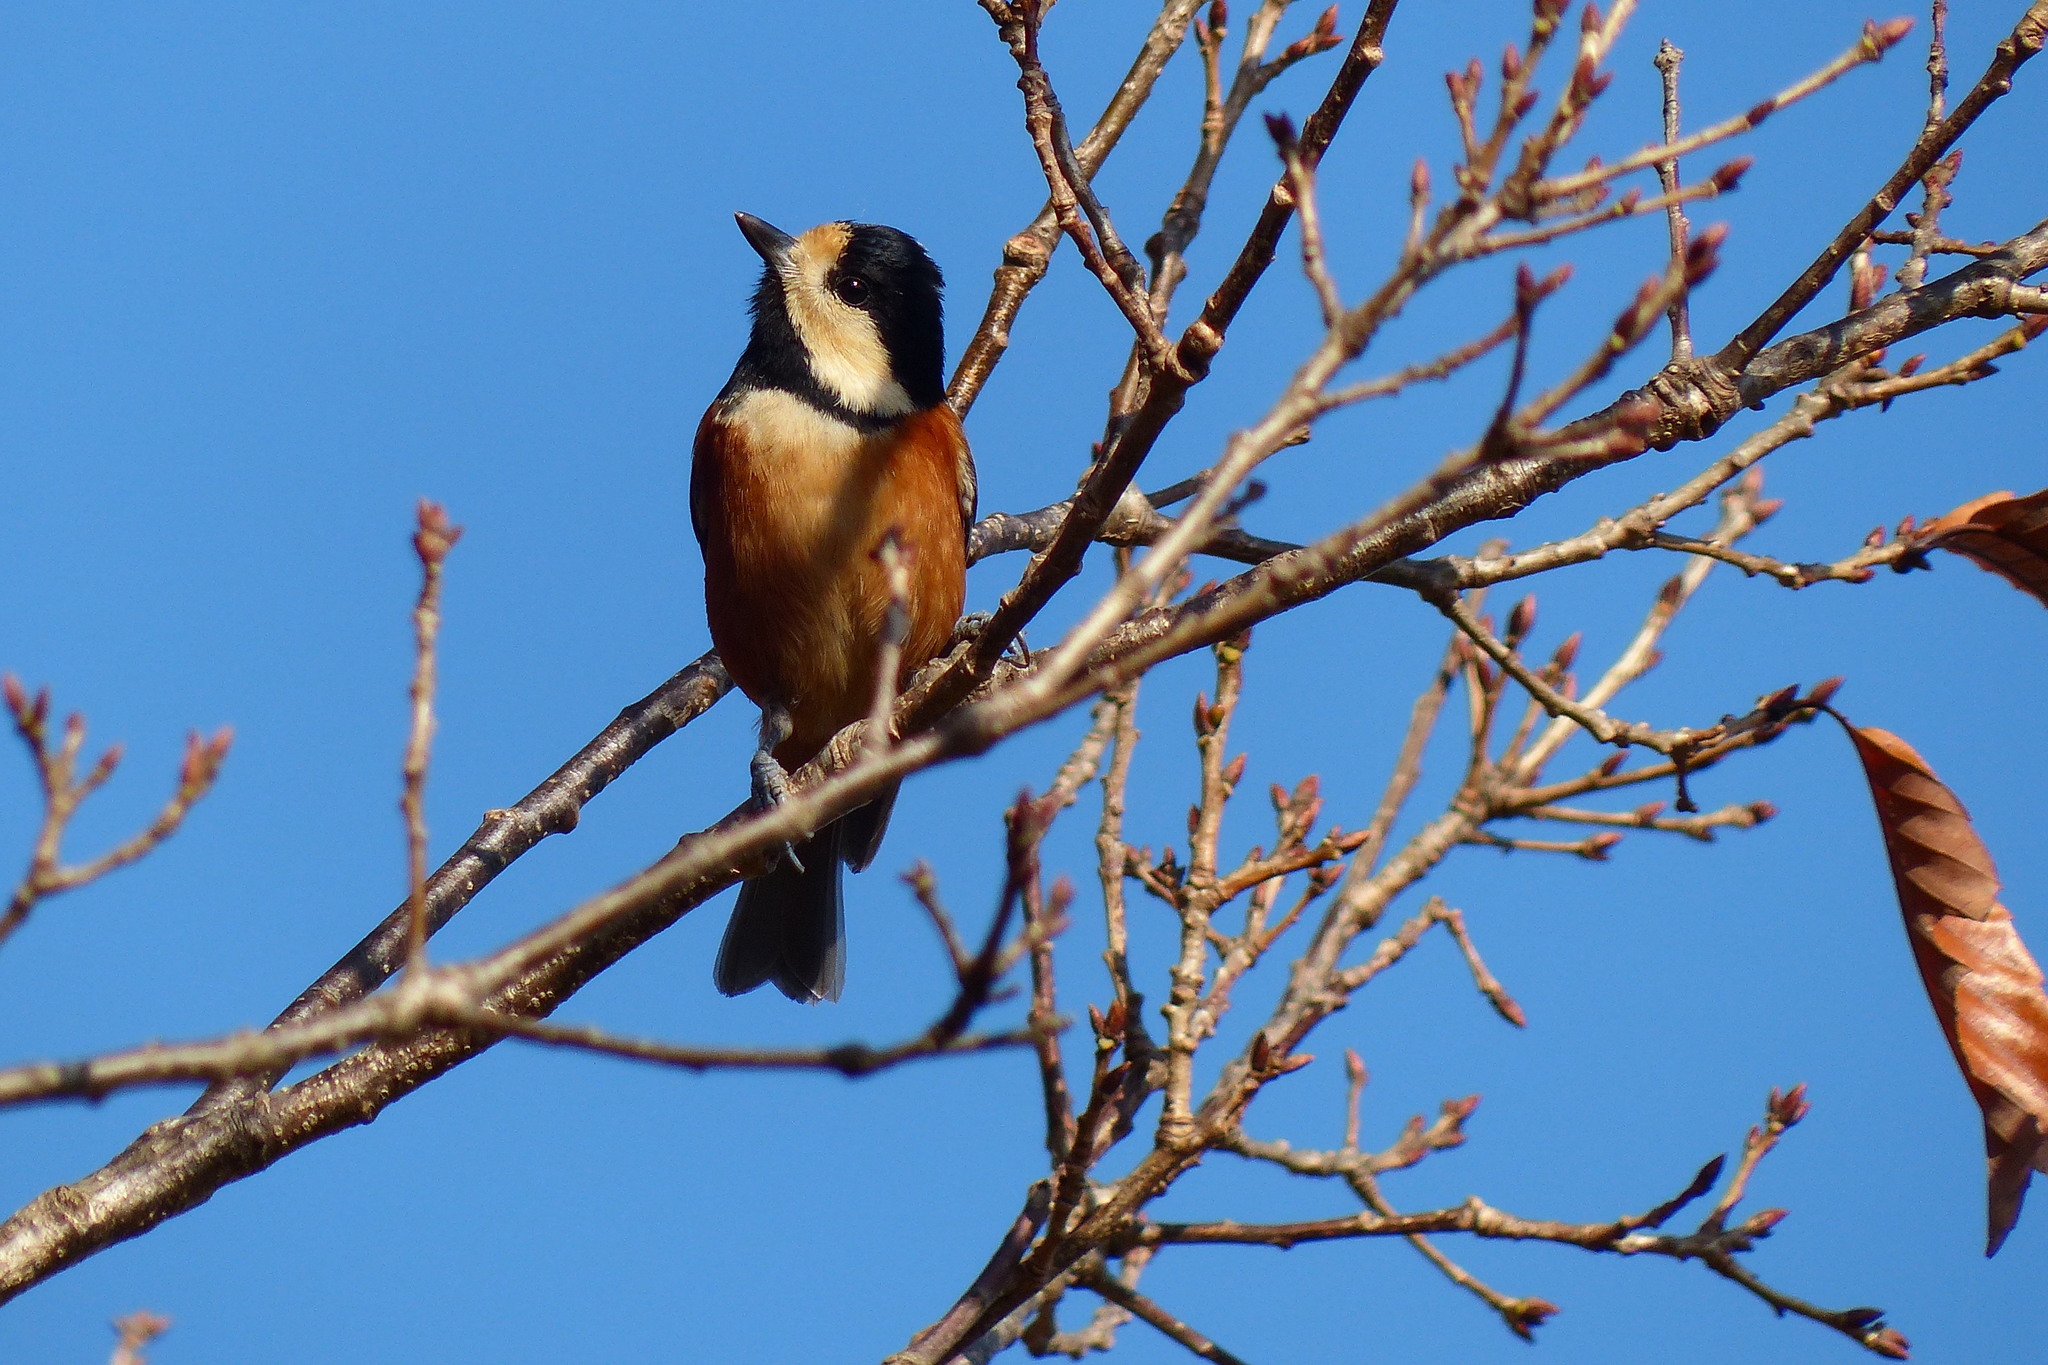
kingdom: Animalia
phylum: Chordata
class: Aves
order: Passeriformes
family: Paridae
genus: Poecile
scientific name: Poecile varius
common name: Varied tit
